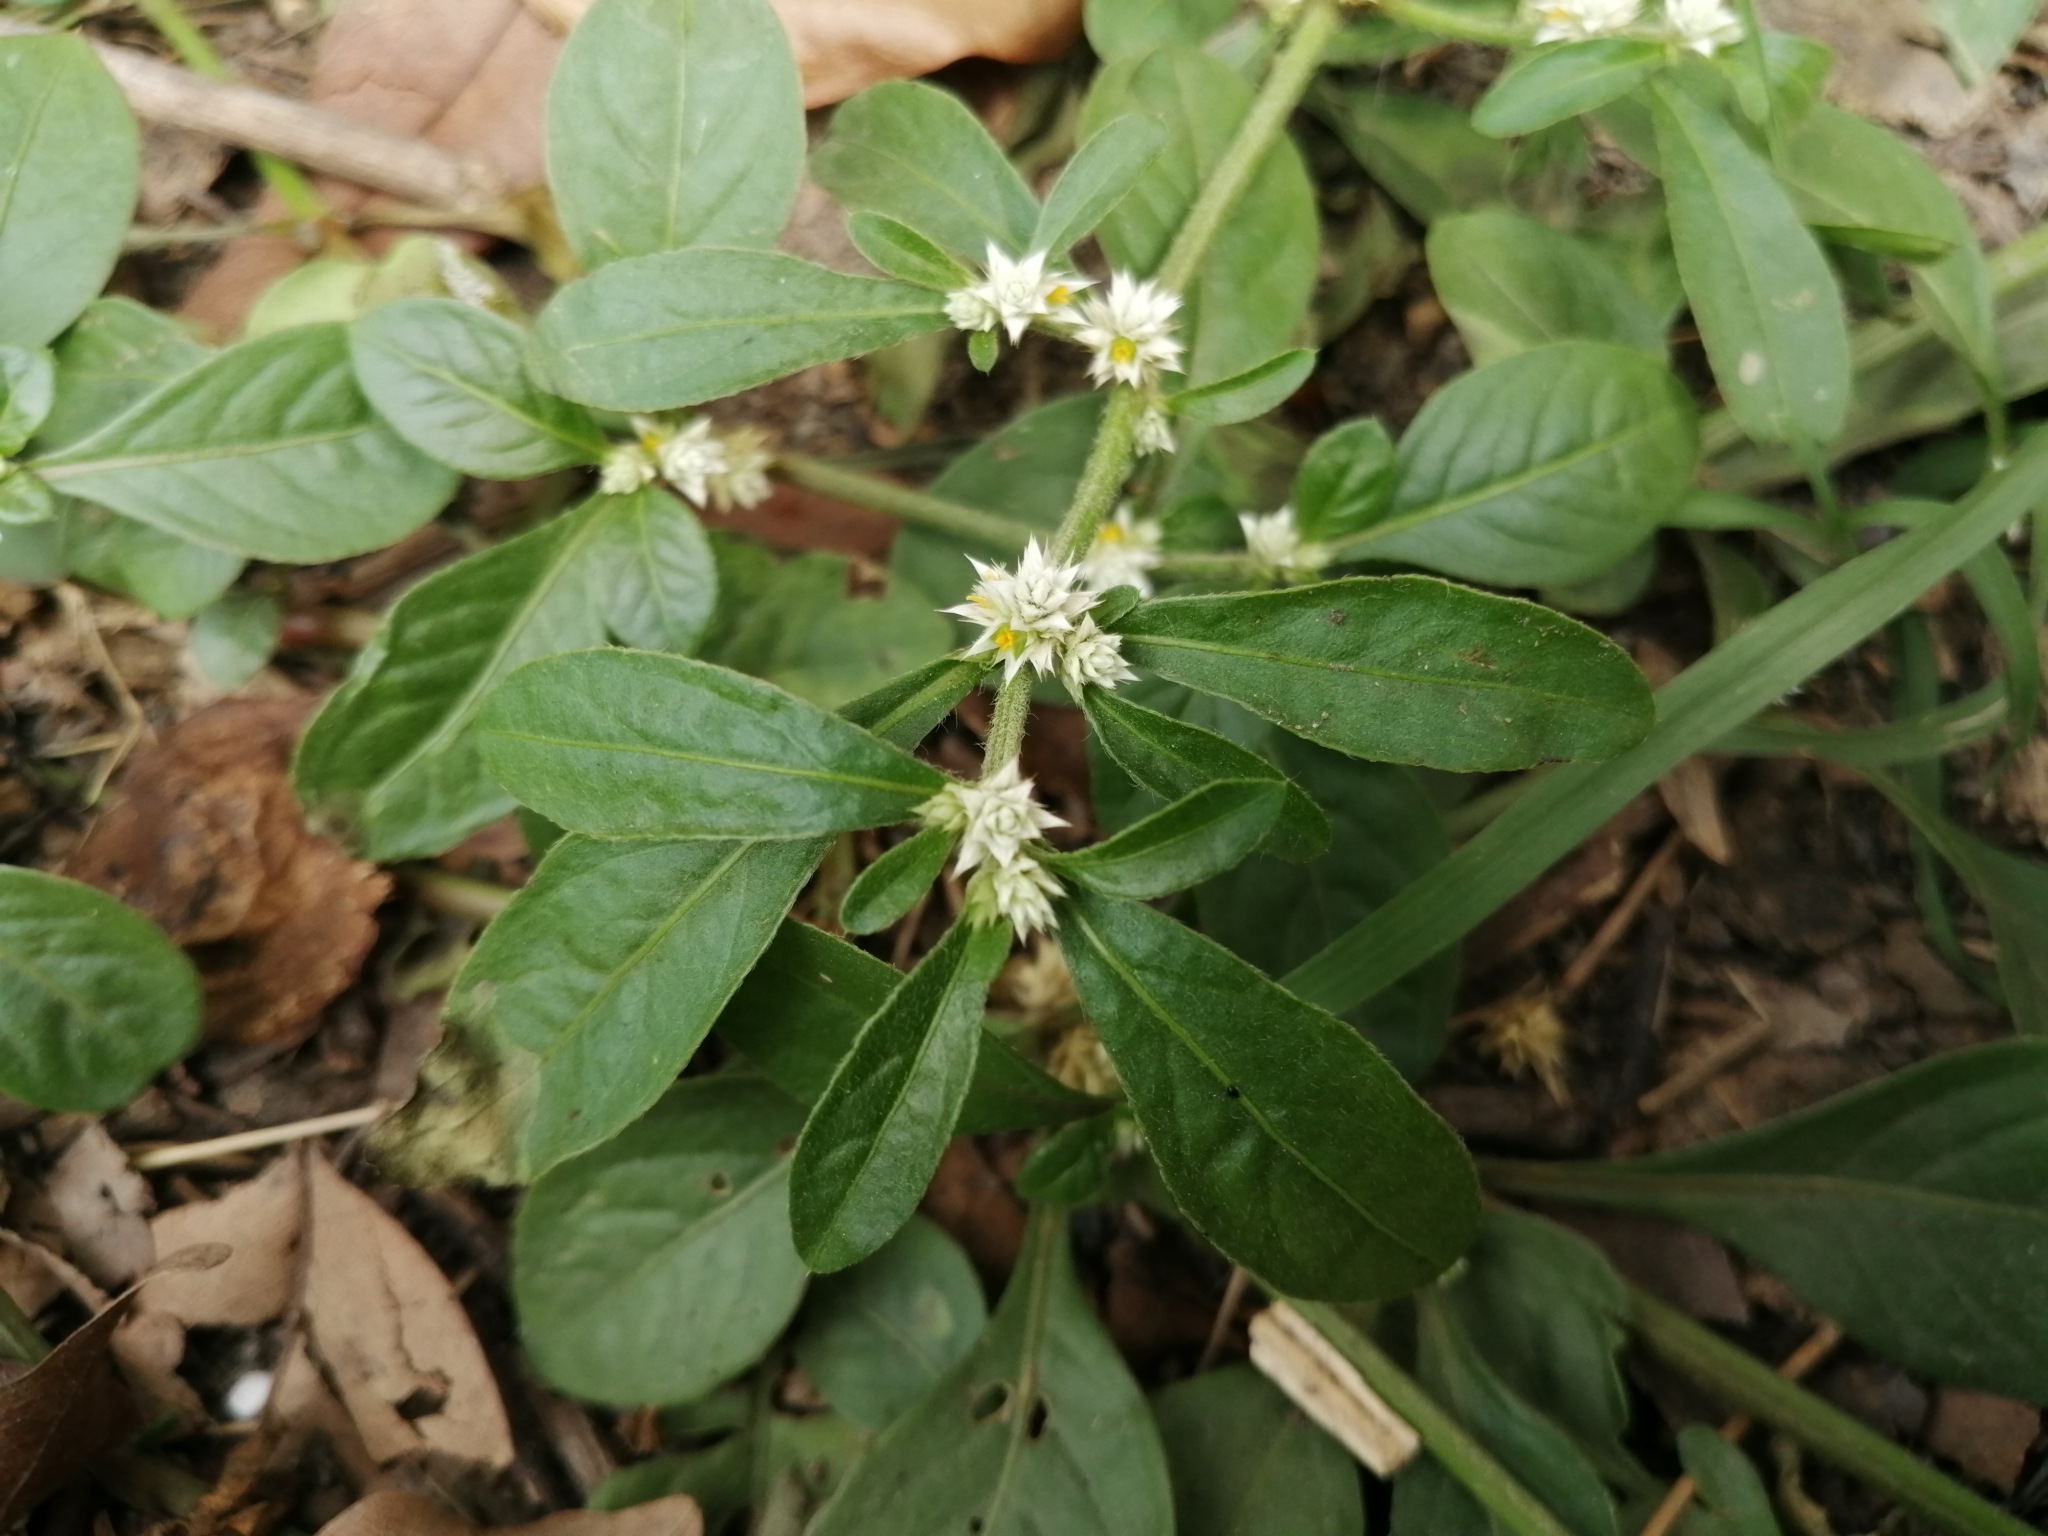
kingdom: Plantae
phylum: Tracheophyta
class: Magnoliopsida
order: Caryophyllales
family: Amaranthaceae
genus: Alternanthera
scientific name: Alternanthera bettzickiana
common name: Calico-plant
